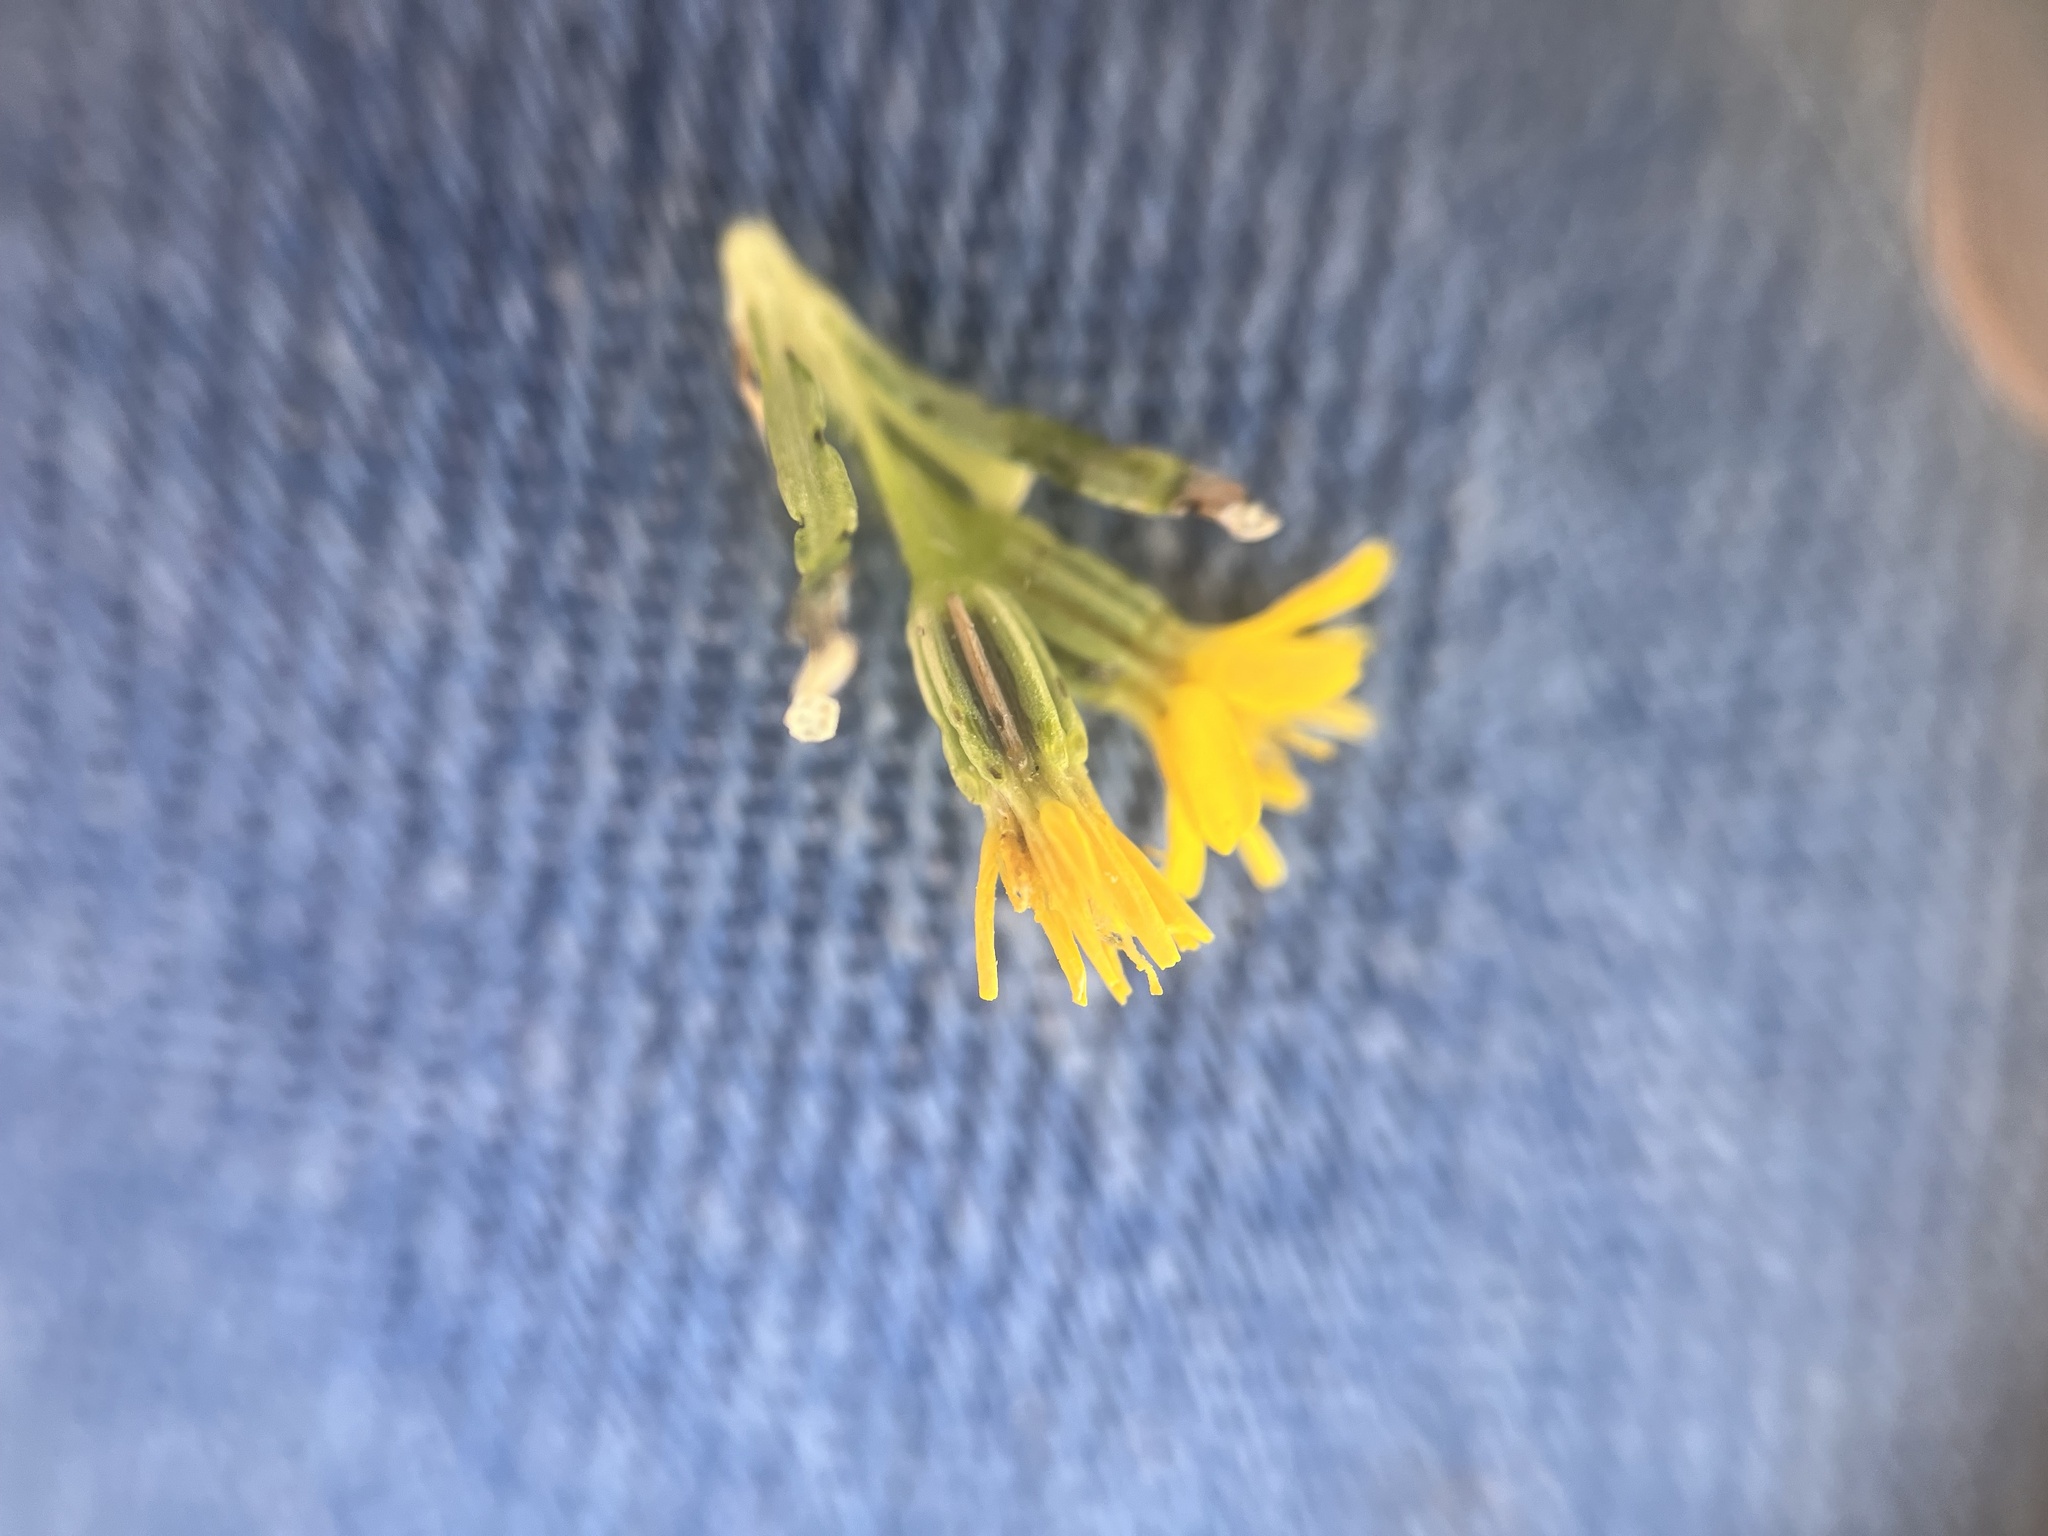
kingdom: Plantae
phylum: Tracheophyta
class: Magnoliopsida
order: Asterales
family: Asteraceae
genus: Pectis
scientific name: Pectis papposa
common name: Many-bristle chinchweed
